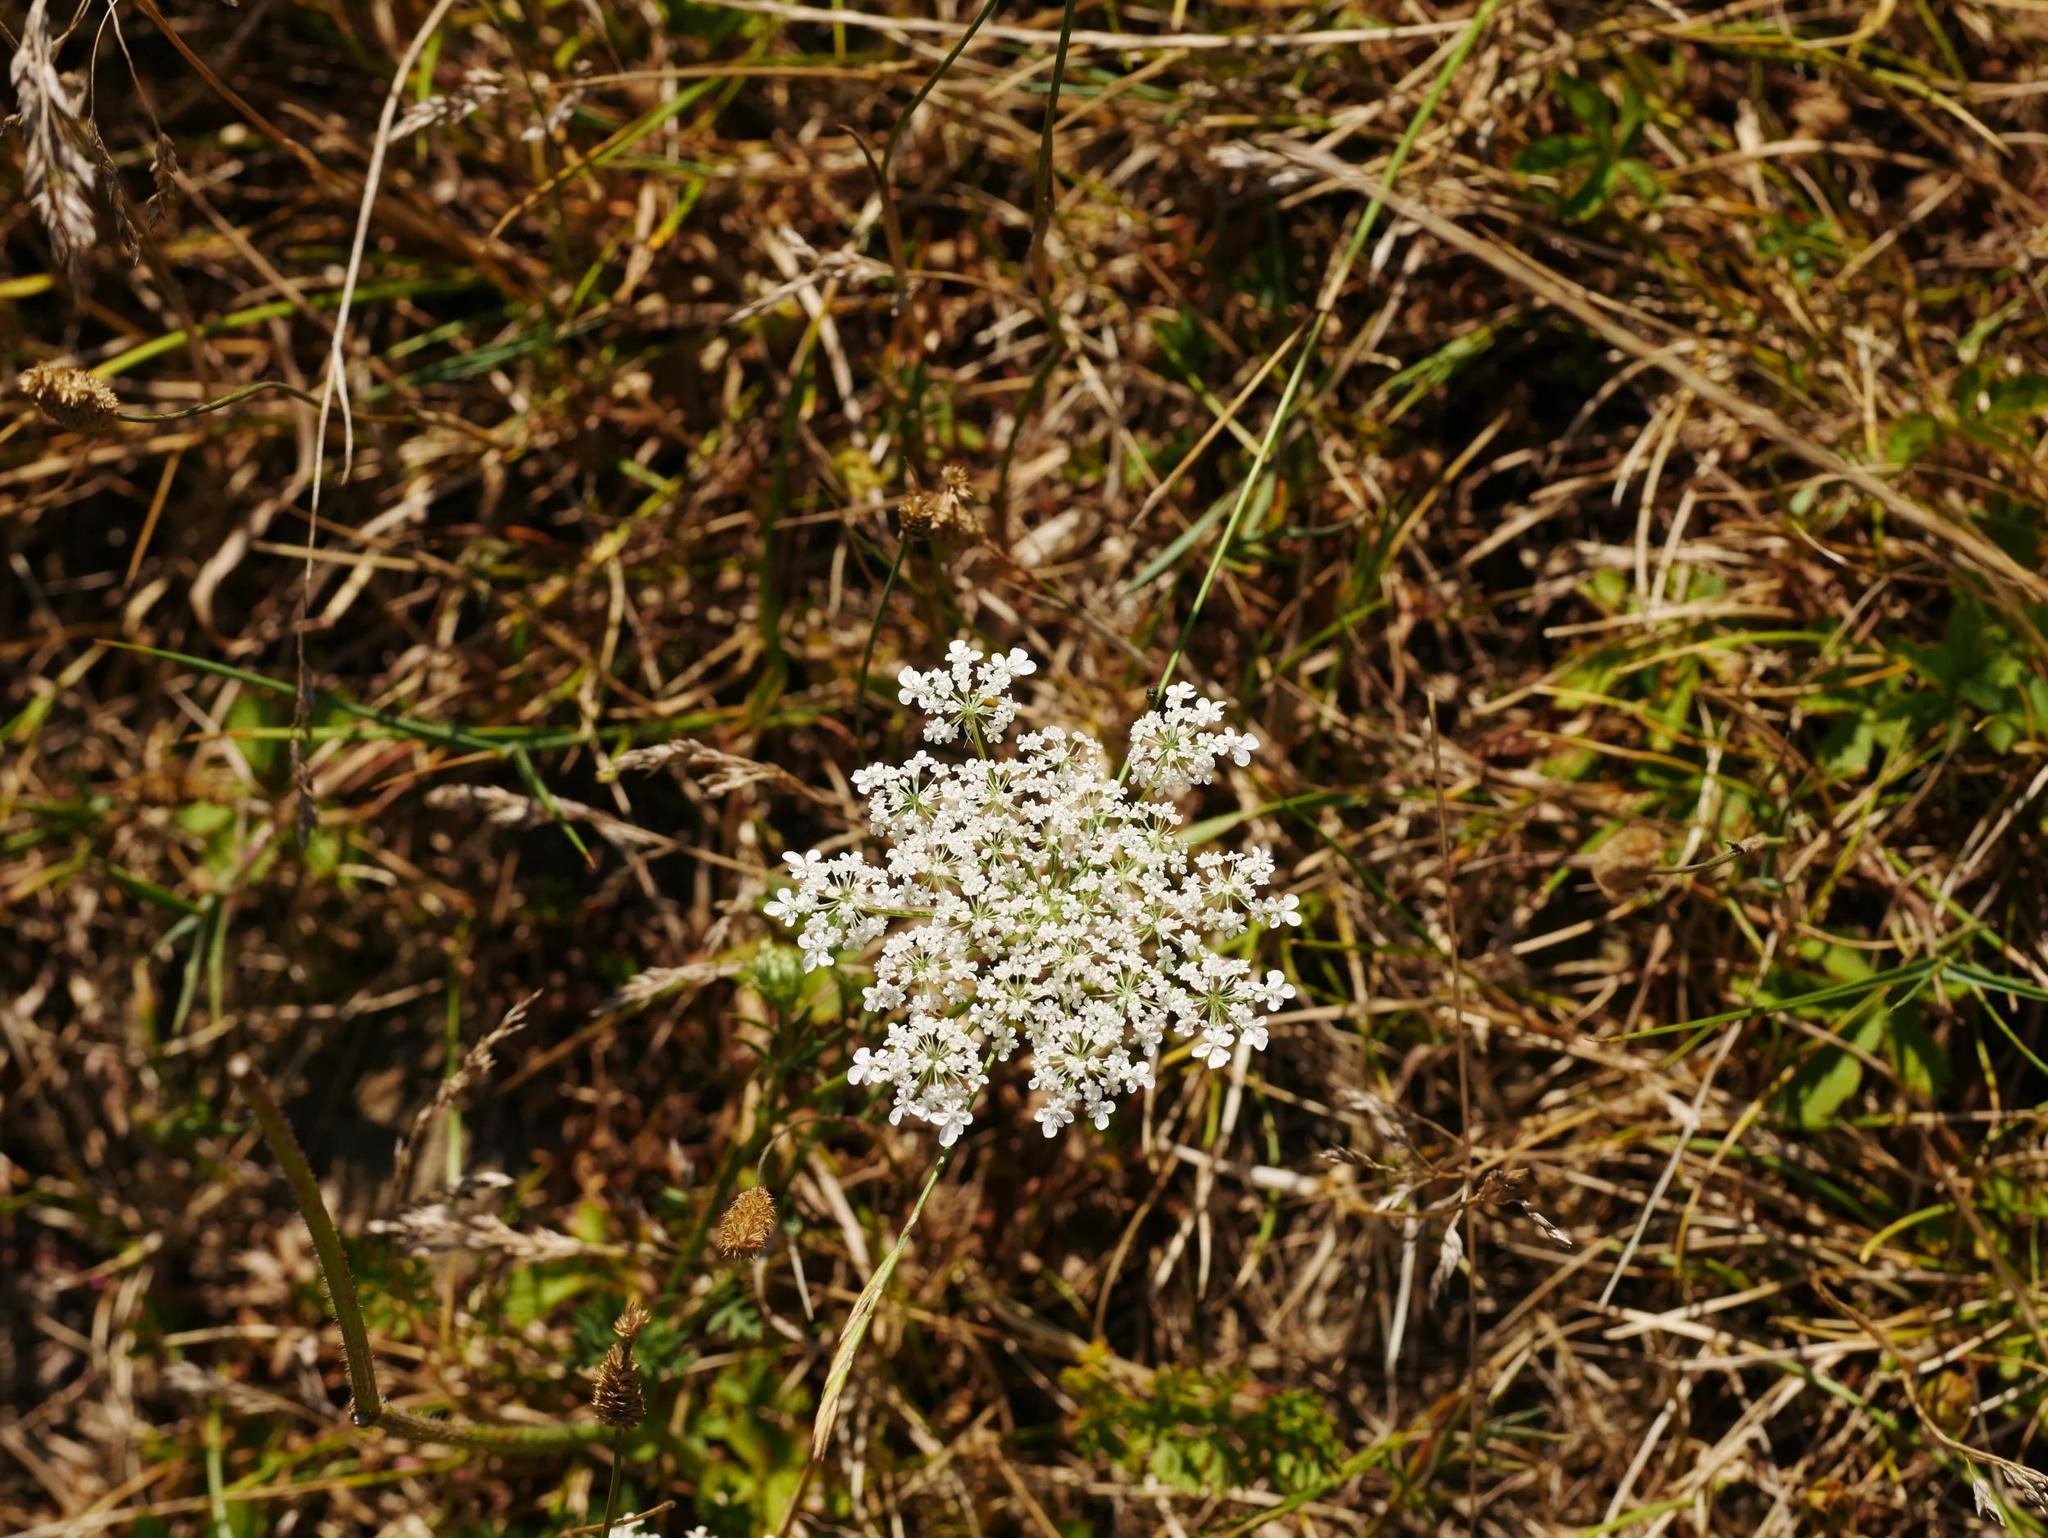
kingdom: Plantae
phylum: Tracheophyta
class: Magnoliopsida
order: Apiales
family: Apiaceae
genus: Daucus
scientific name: Daucus carota
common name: Wild carrot
